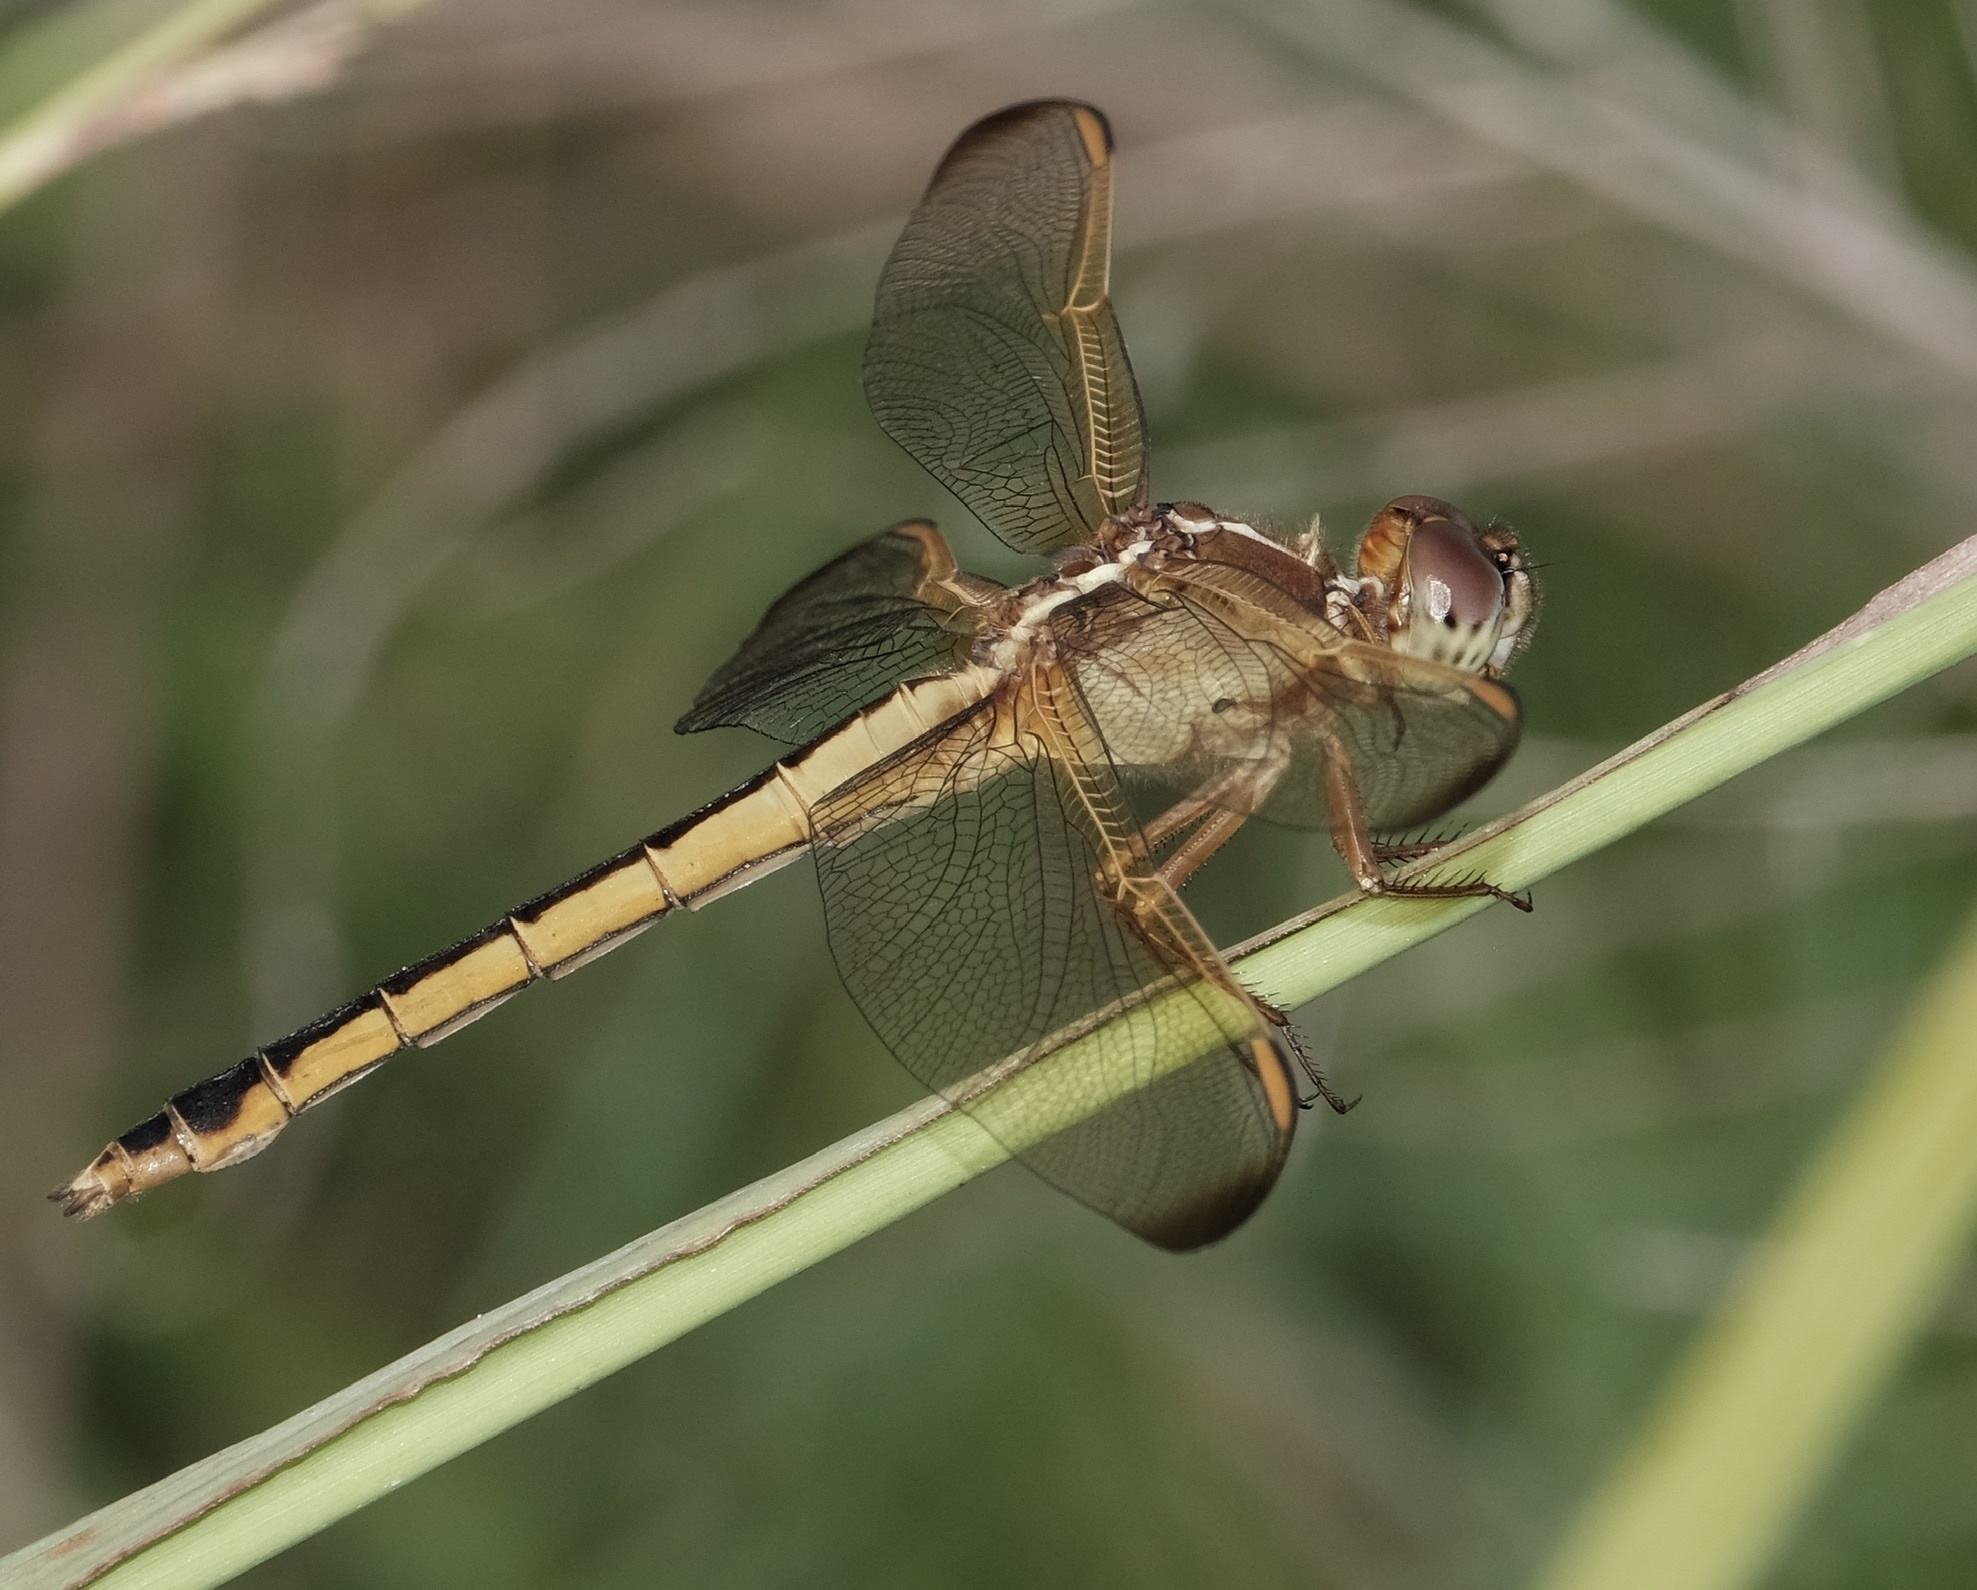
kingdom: Animalia
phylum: Arthropoda
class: Insecta
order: Odonata
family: Libellulidae
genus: Libellula
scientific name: Libellula needhami
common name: Needham's skimmer
